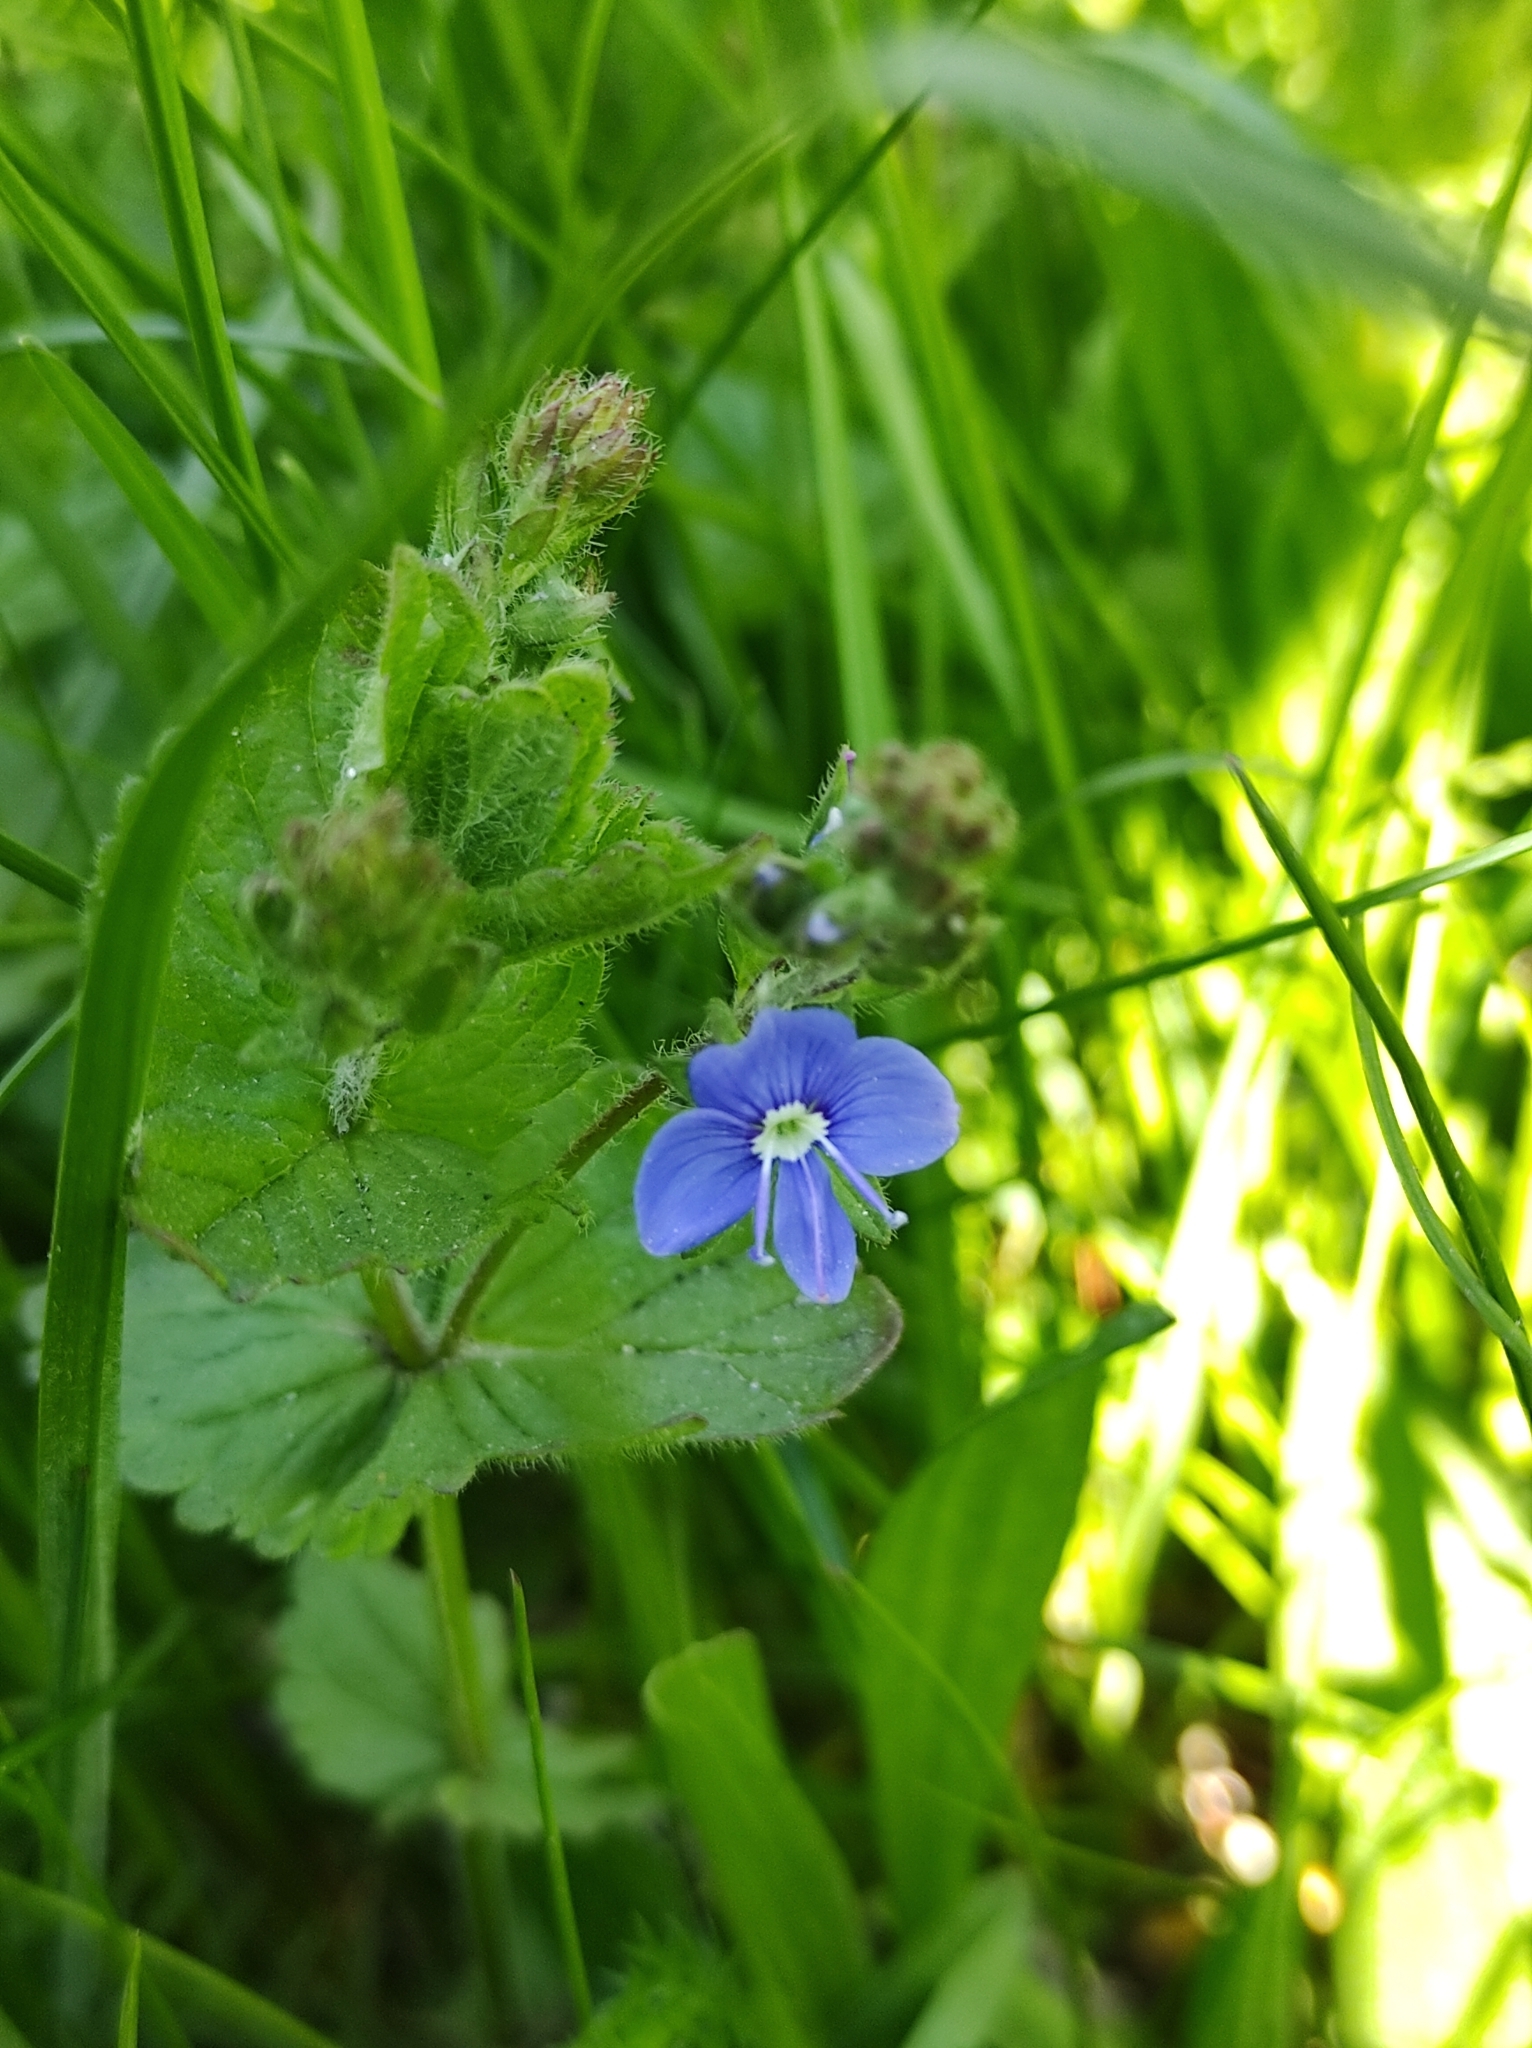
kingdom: Plantae
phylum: Tracheophyta
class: Magnoliopsida
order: Lamiales
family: Plantaginaceae
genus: Veronica
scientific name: Veronica chamaedrys
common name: Germander speedwell
